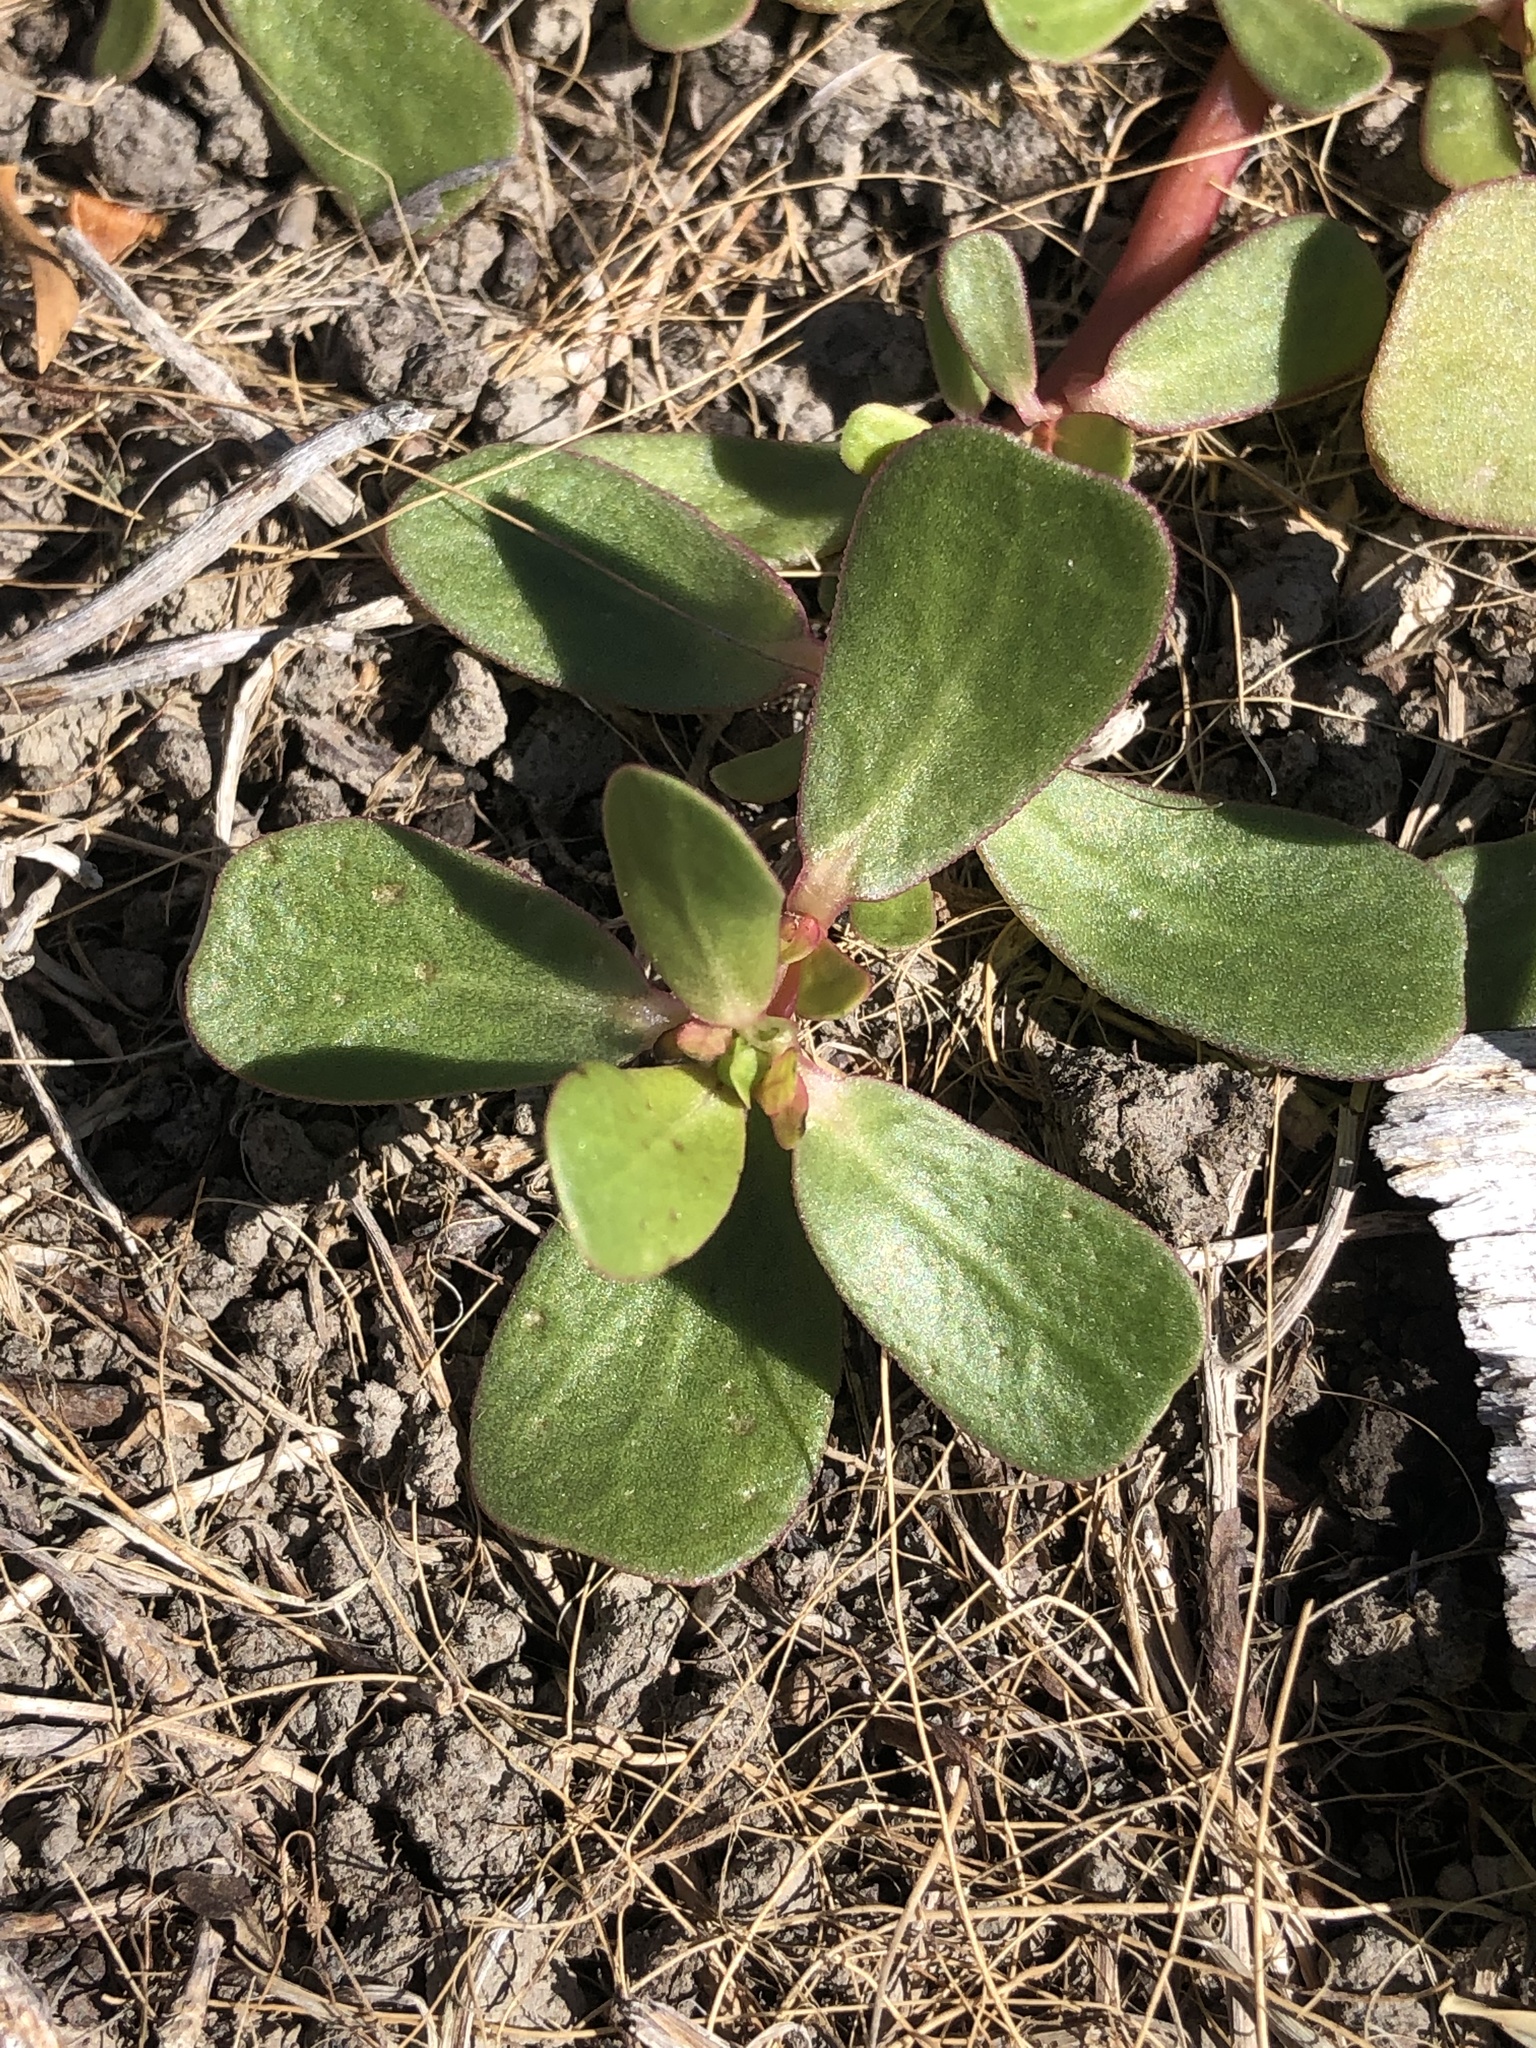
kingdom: Plantae
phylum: Tracheophyta
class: Magnoliopsida
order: Caryophyllales
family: Portulacaceae
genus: Portulaca
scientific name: Portulaca oleracea
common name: Common purslane
